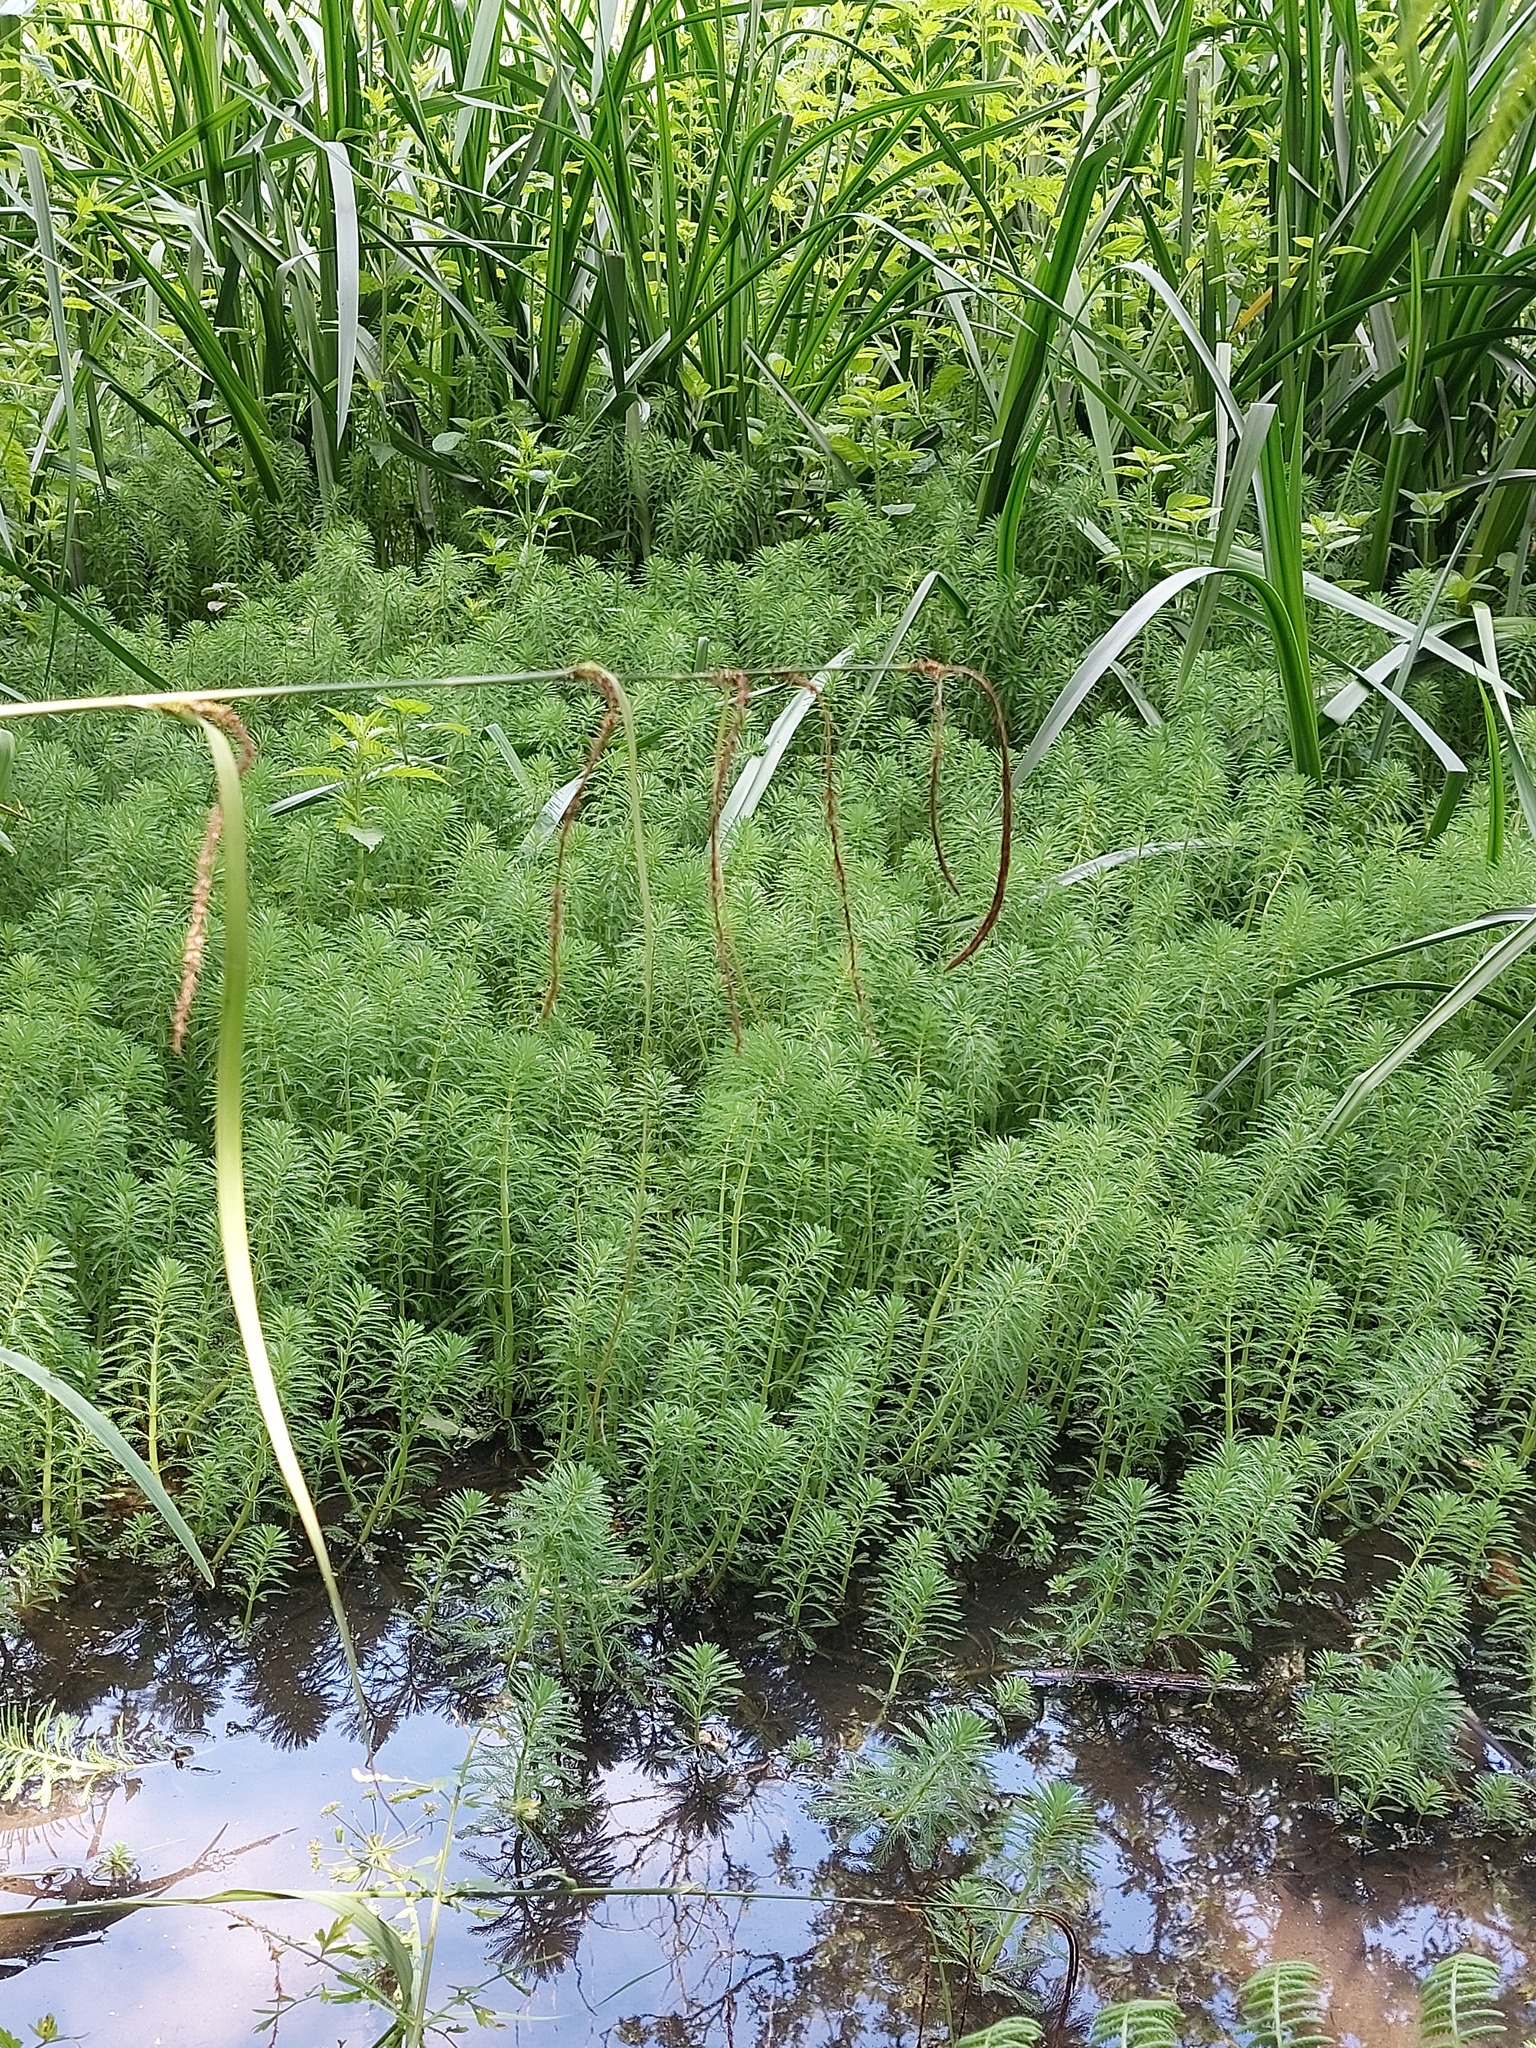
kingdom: Plantae
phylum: Tracheophyta
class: Magnoliopsida
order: Saxifragales
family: Haloragaceae
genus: Myriophyllum
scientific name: Myriophyllum aquaticum
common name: Parrot's feather
